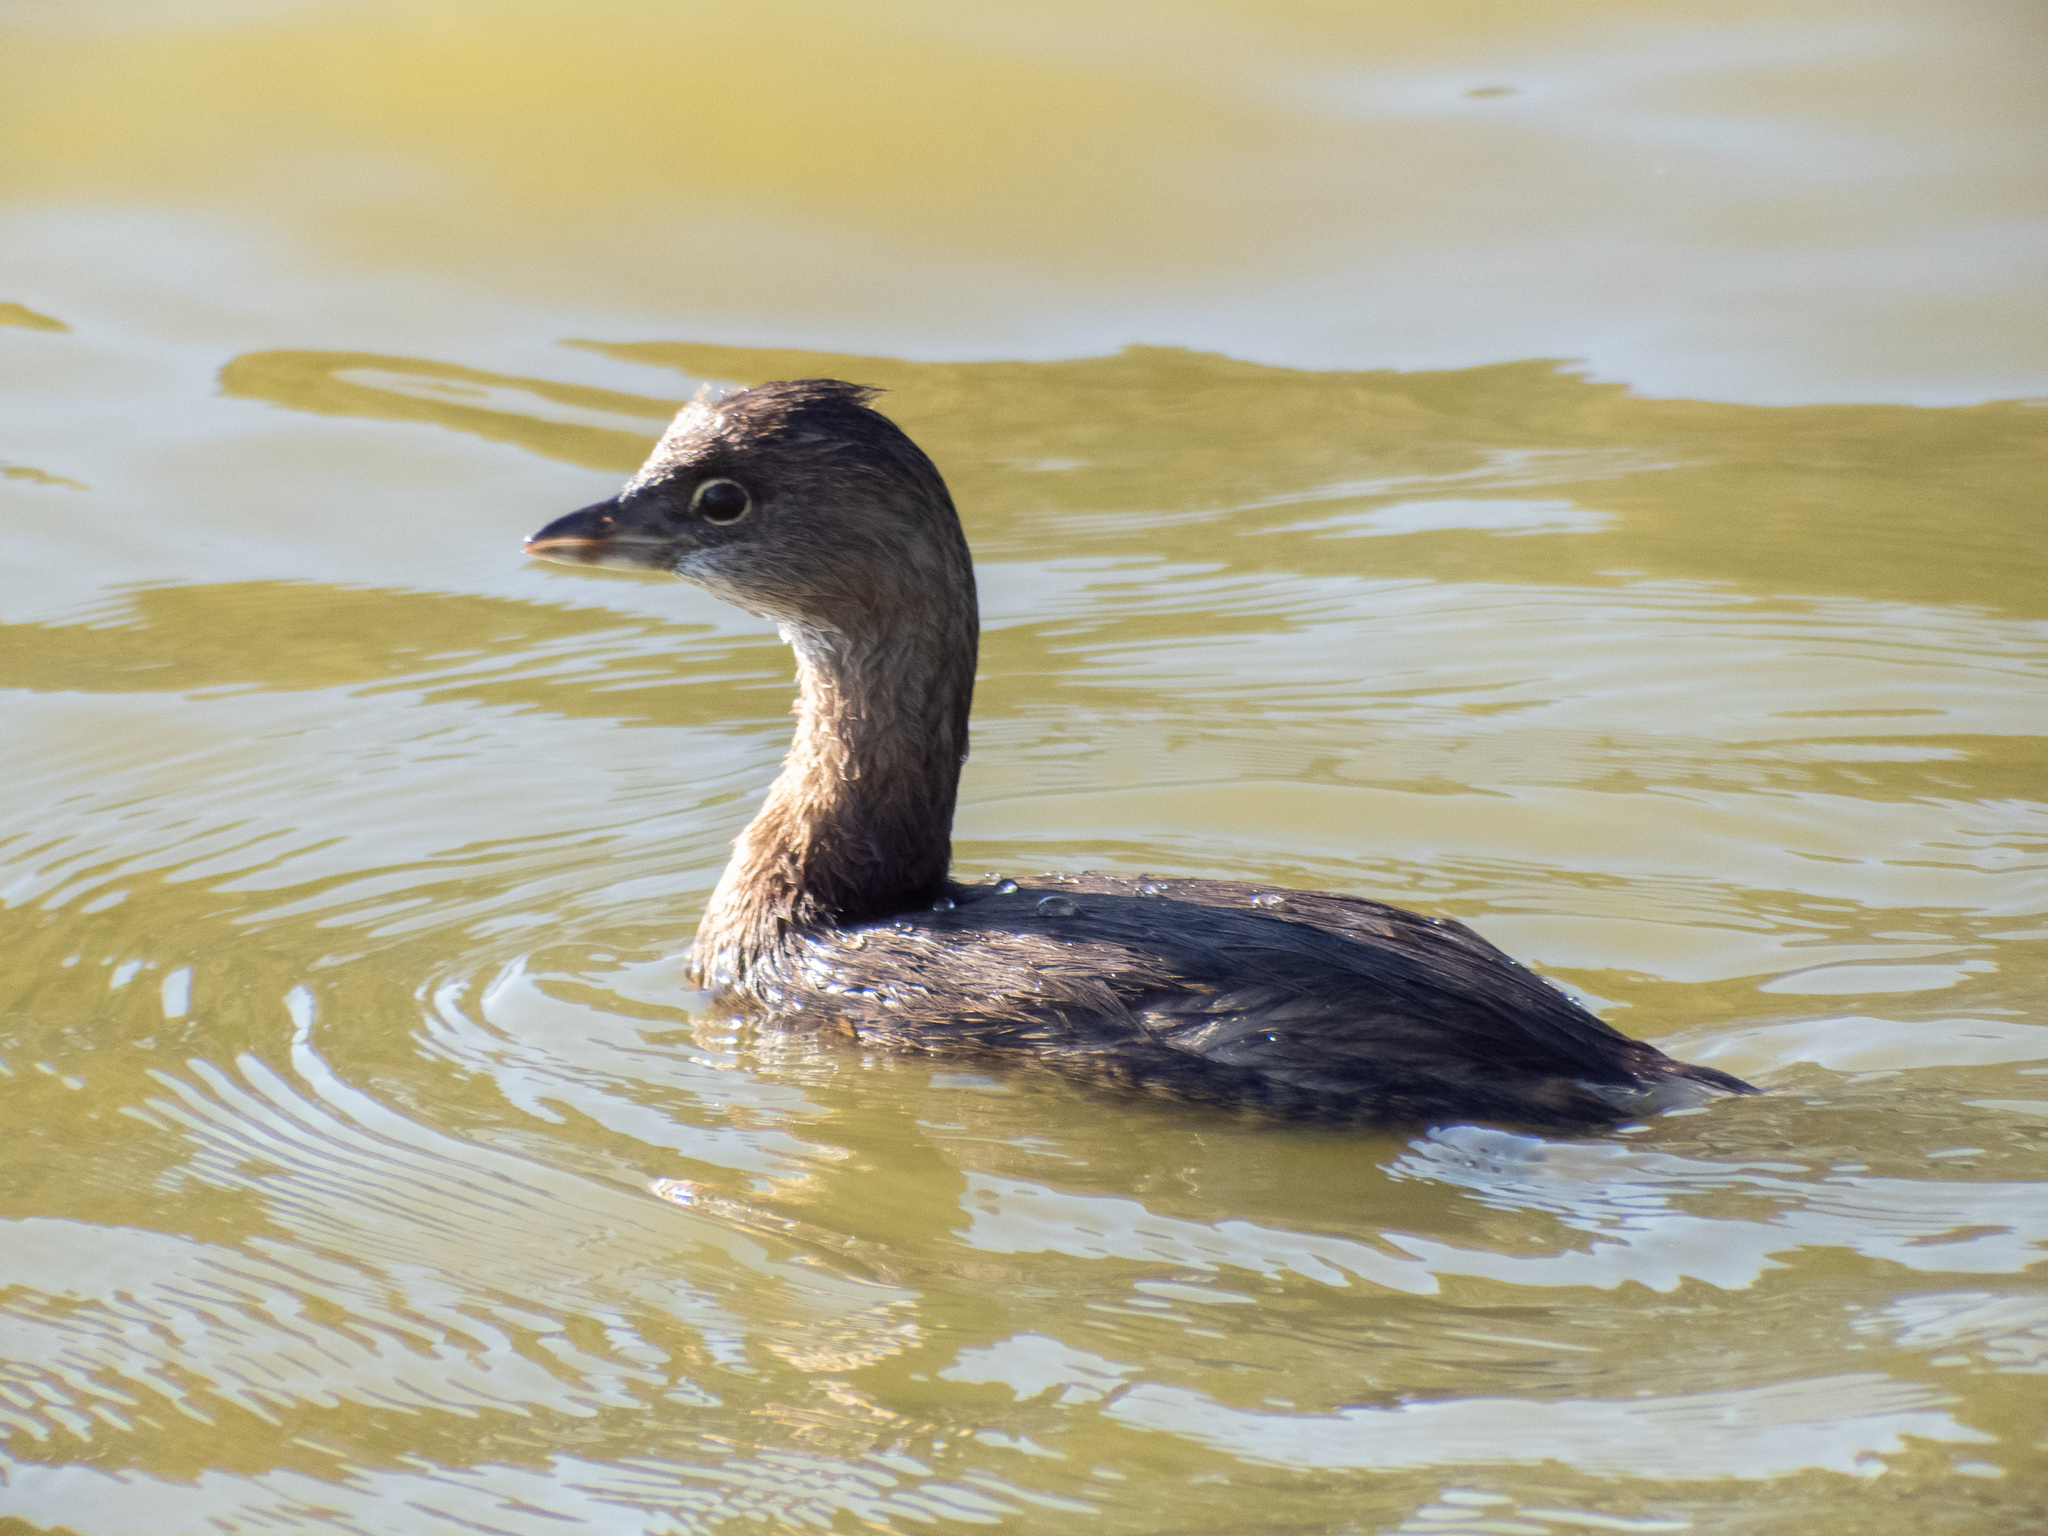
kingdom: Animalia
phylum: Chordata
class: Aves
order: Podicipediformes
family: Podicipedidae
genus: Podilymbus
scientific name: Podilymbus podiceps
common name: Pied-billed grebe
